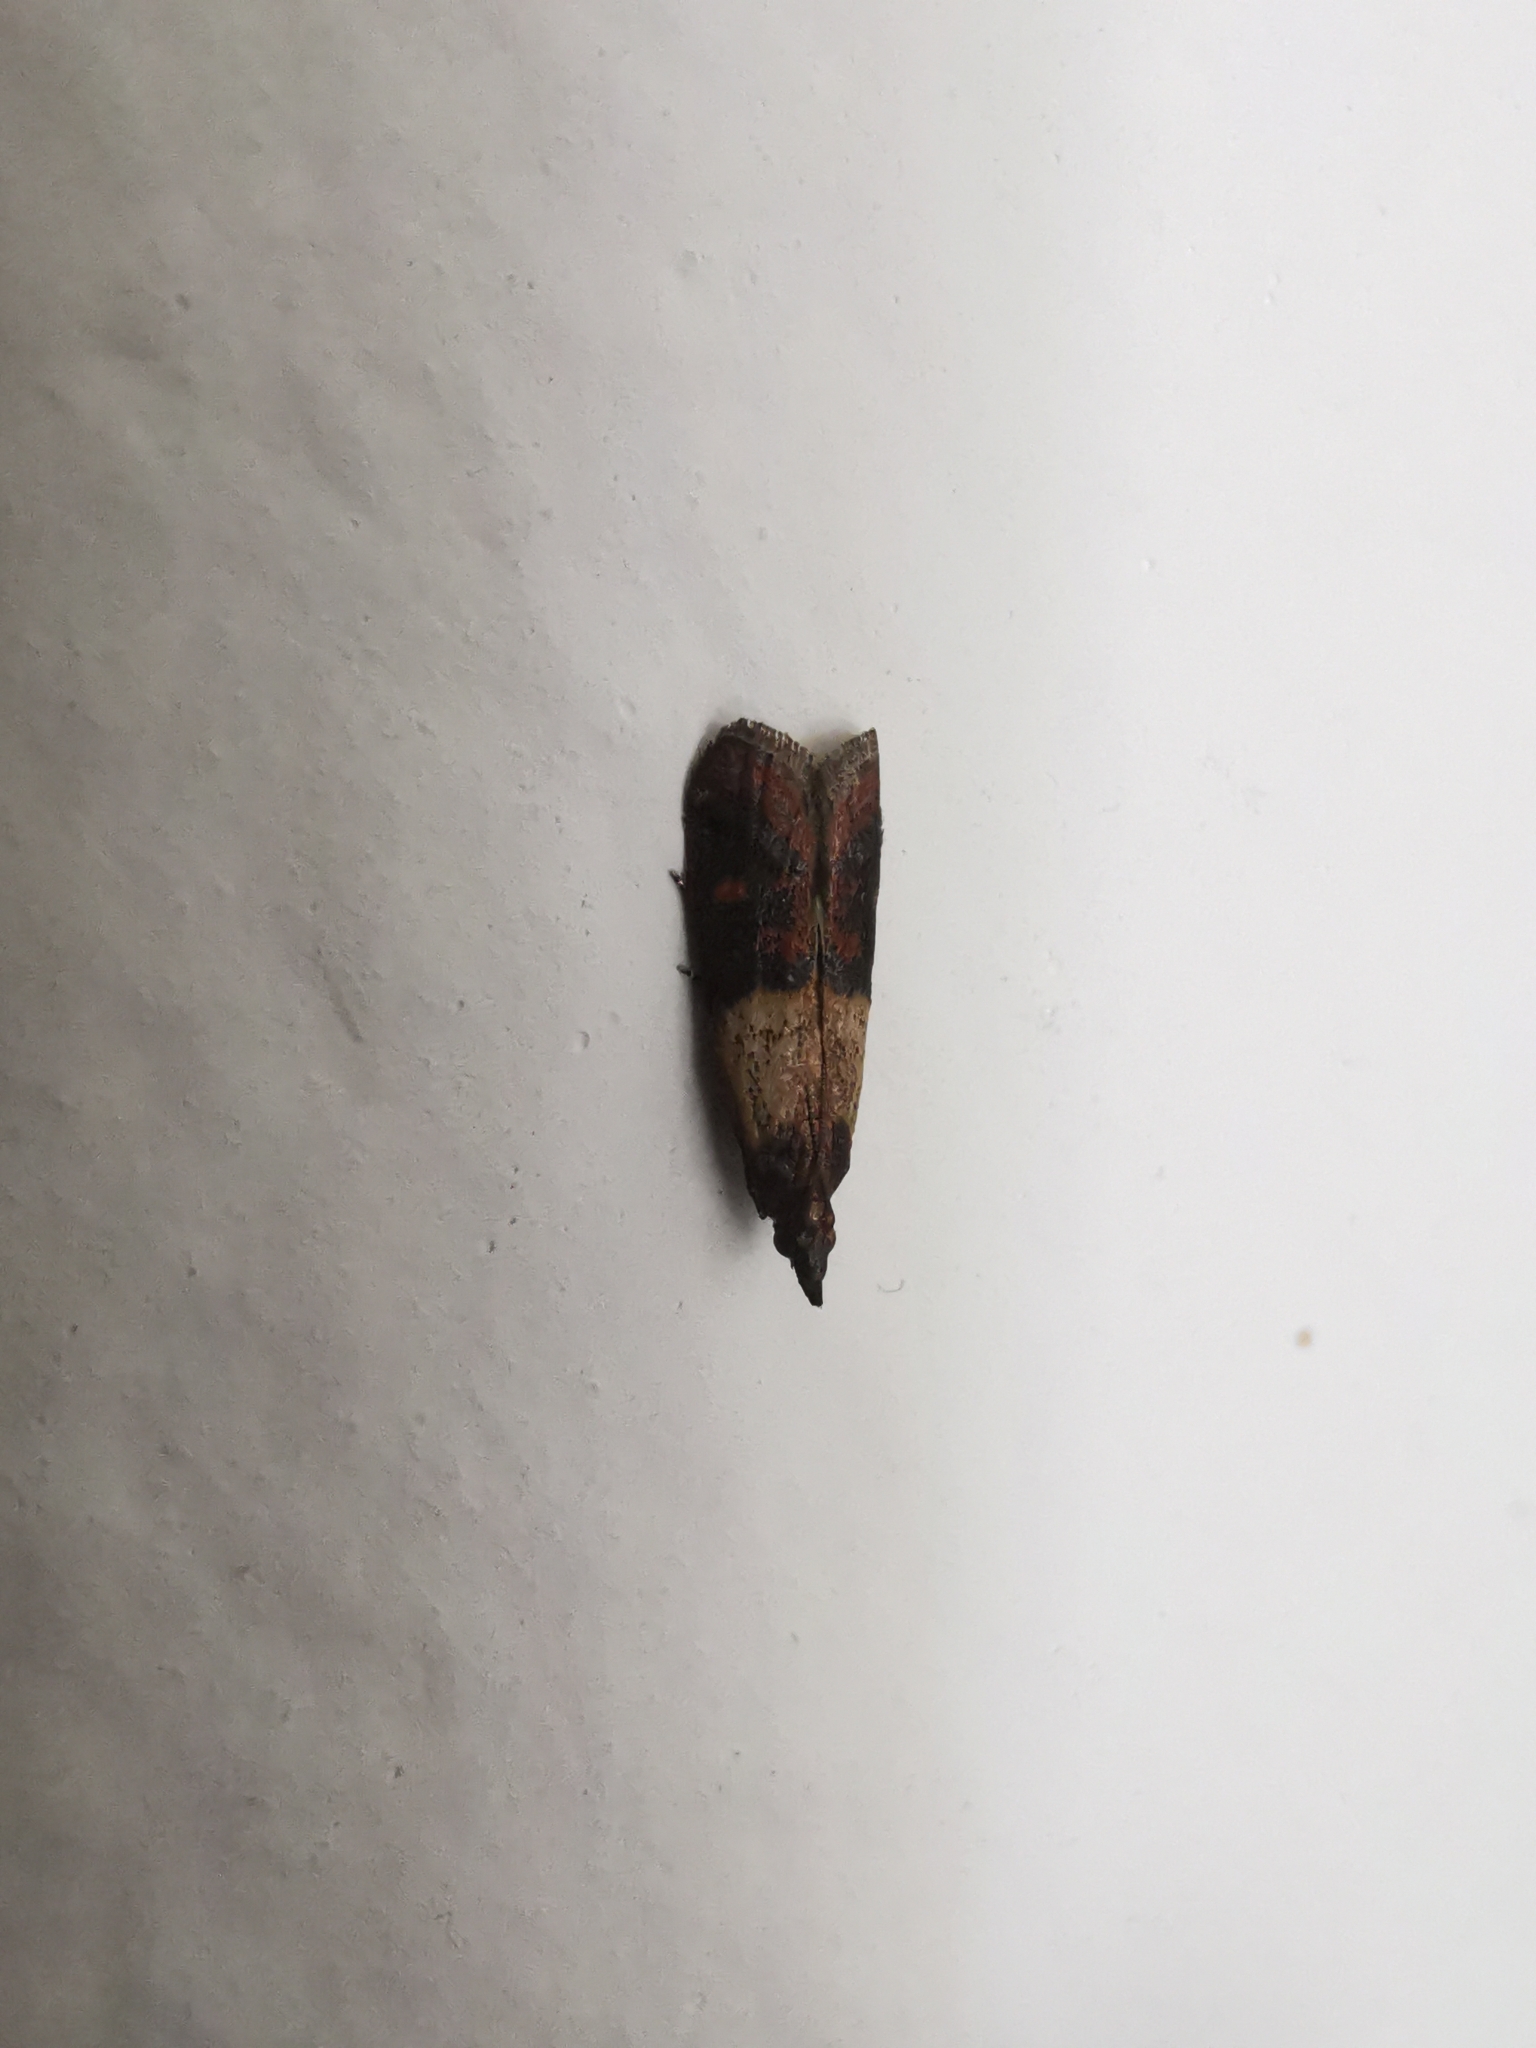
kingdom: Animalia
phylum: Arthropoda
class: Insecta
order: Lepidoptera
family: Pyralidae
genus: Plodia
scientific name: Plodia interpunctella
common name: Indian meal moth
